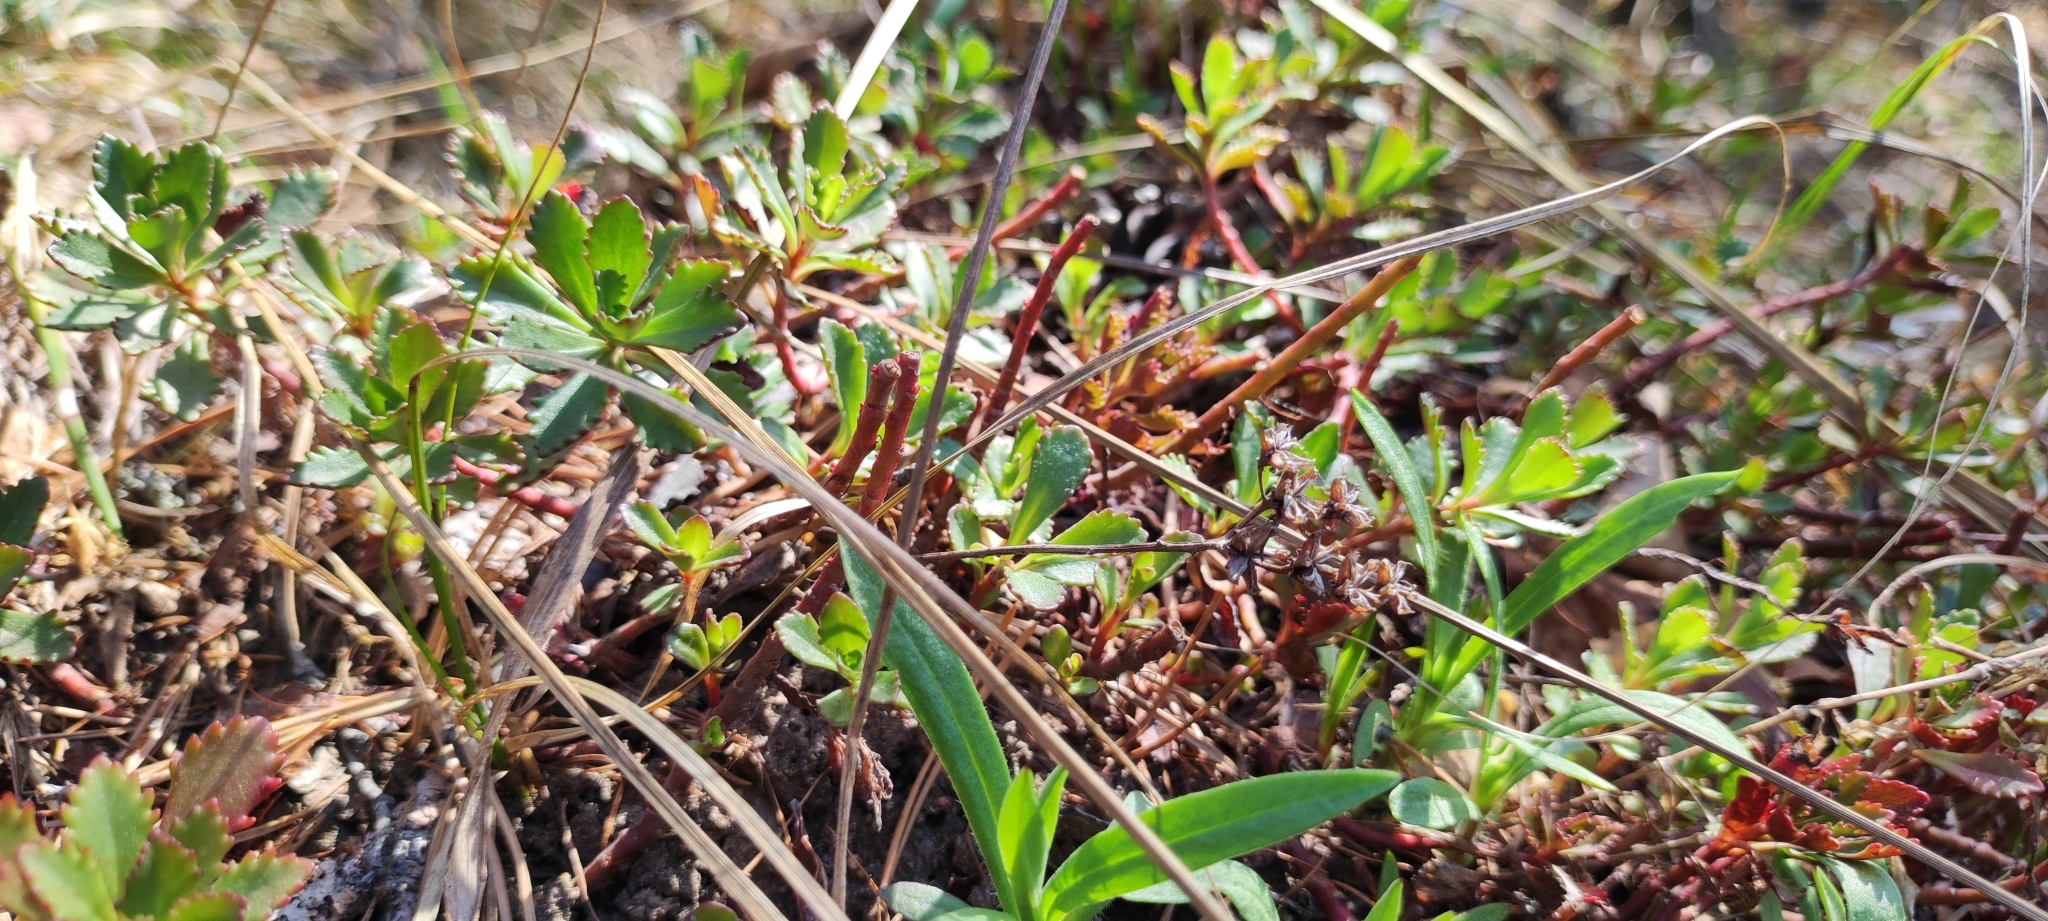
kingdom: Plantae
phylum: Tracheophyta
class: Magnoliopsida
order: Saxifragales
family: Crassulaceae
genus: Phedimus
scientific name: Phedimus hybridus
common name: Hybrid stonecrop
